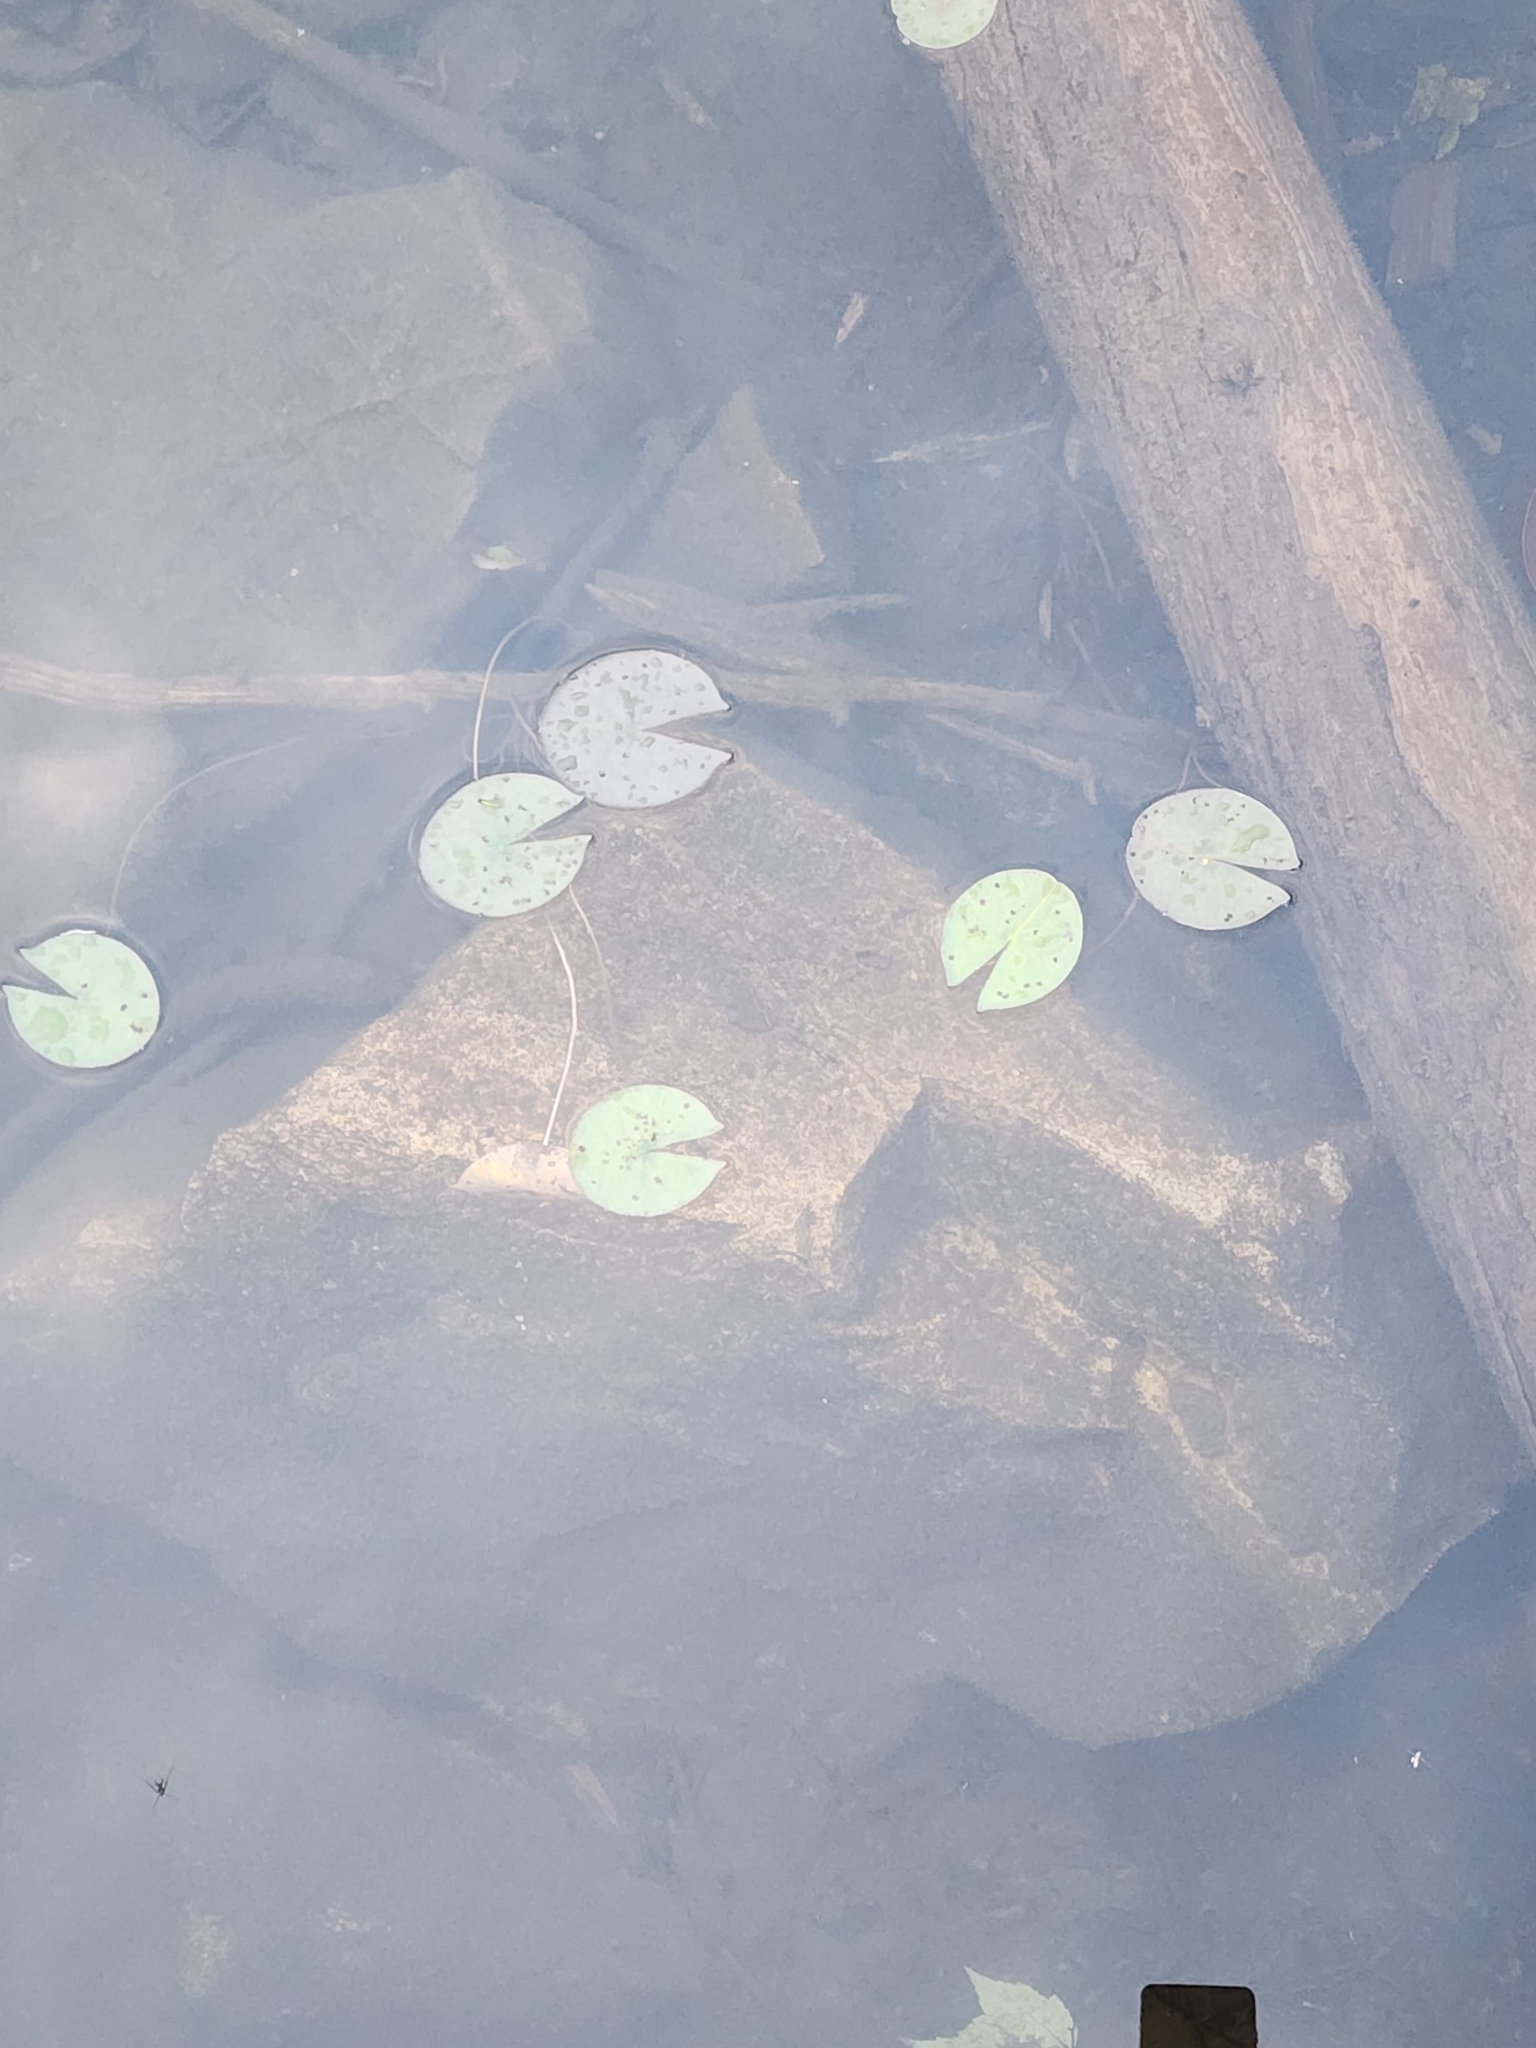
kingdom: Plantae
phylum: Tracheophyta
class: Magnoliopsida
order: Nymphaeales
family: Nymphaeaceae
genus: Nymphaea
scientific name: Nymphaea odorata
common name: Fragrant water-lily
